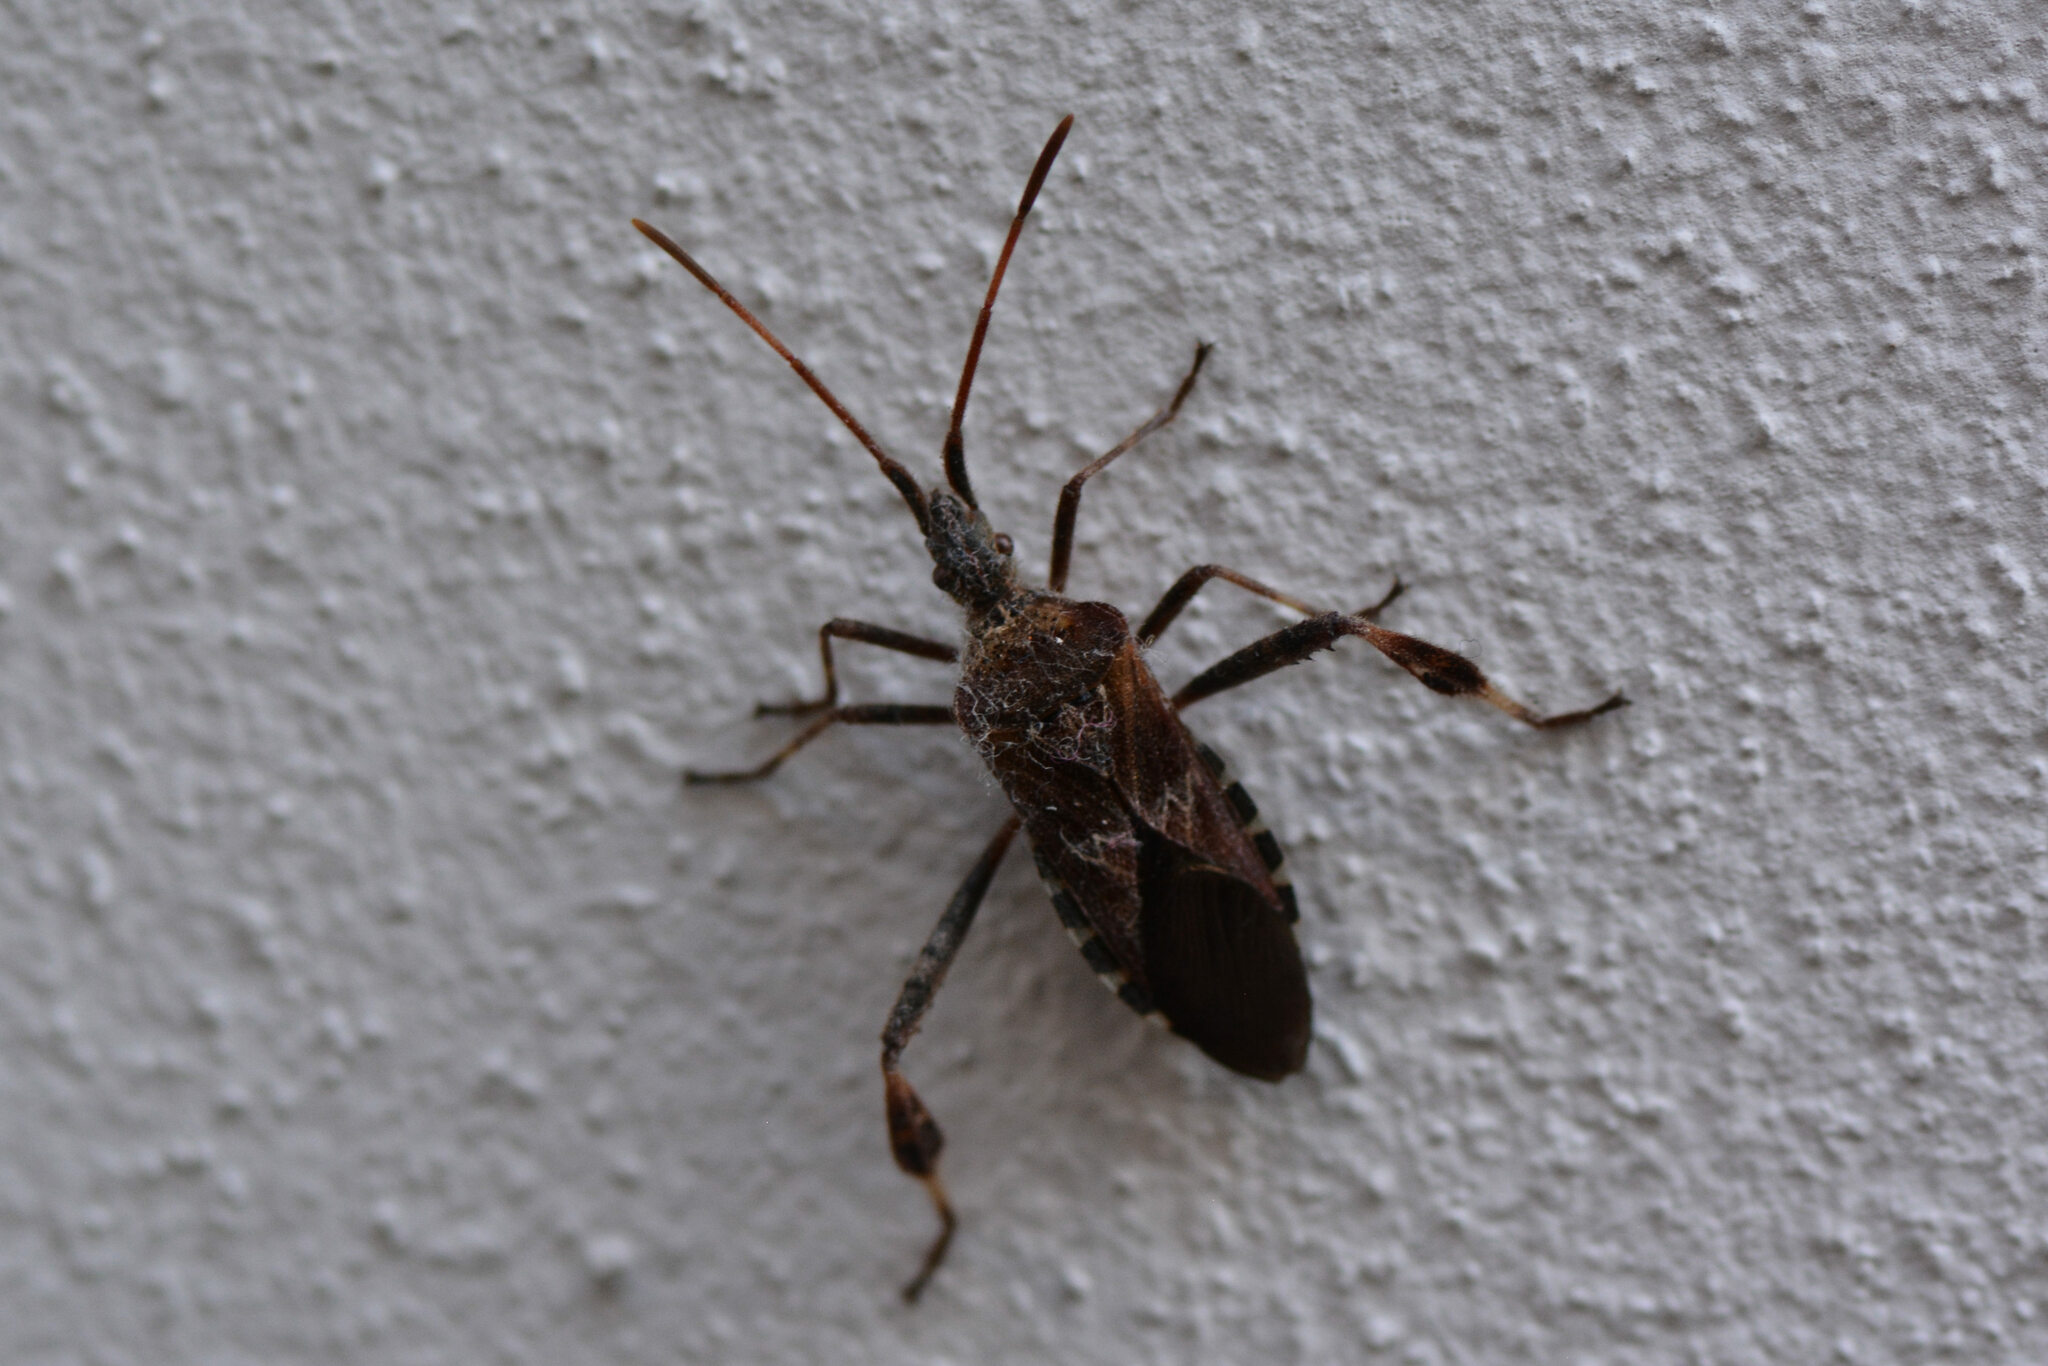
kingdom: Animalia
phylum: Arthropoda
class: Insecta
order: Hemiptera
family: Coreidae
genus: Leptoglossus
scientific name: Leptoglossus occidentalis
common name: Western conifer-seed bug
